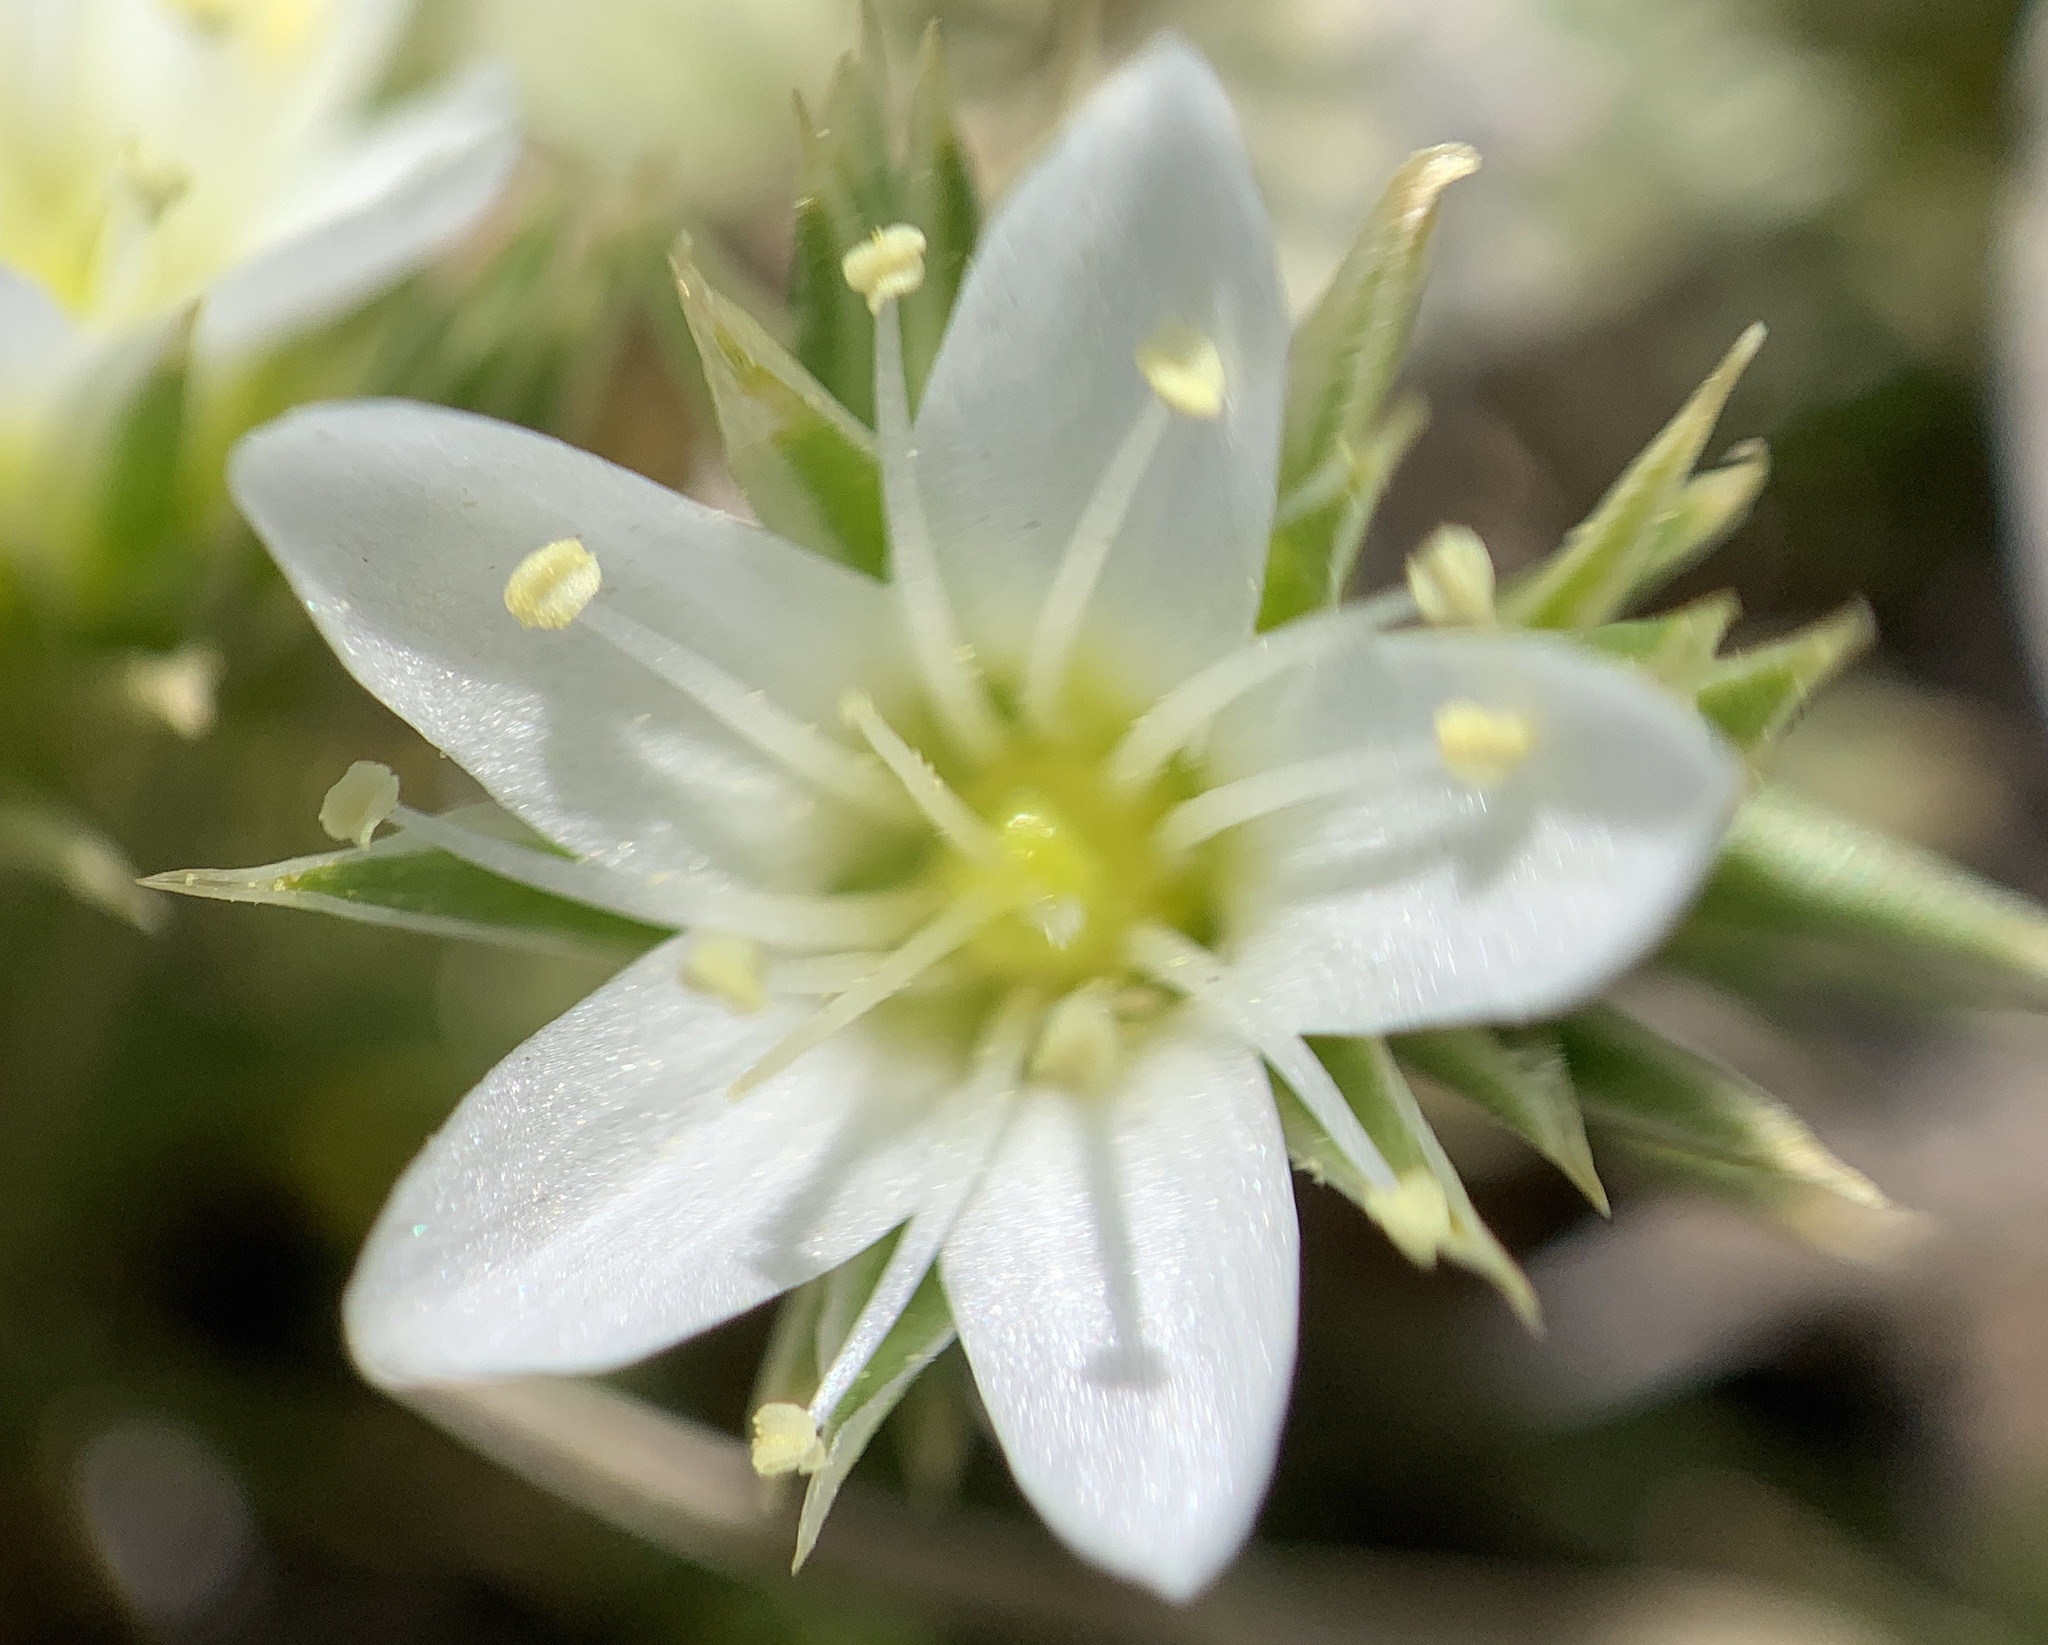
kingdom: Plantae
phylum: Tracheophyta
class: Magnoliopsida
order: Caryophyllales
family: Caryophyllaceae
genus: Eremogone
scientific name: Eremogone hookeri
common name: Hooker's sandwort
